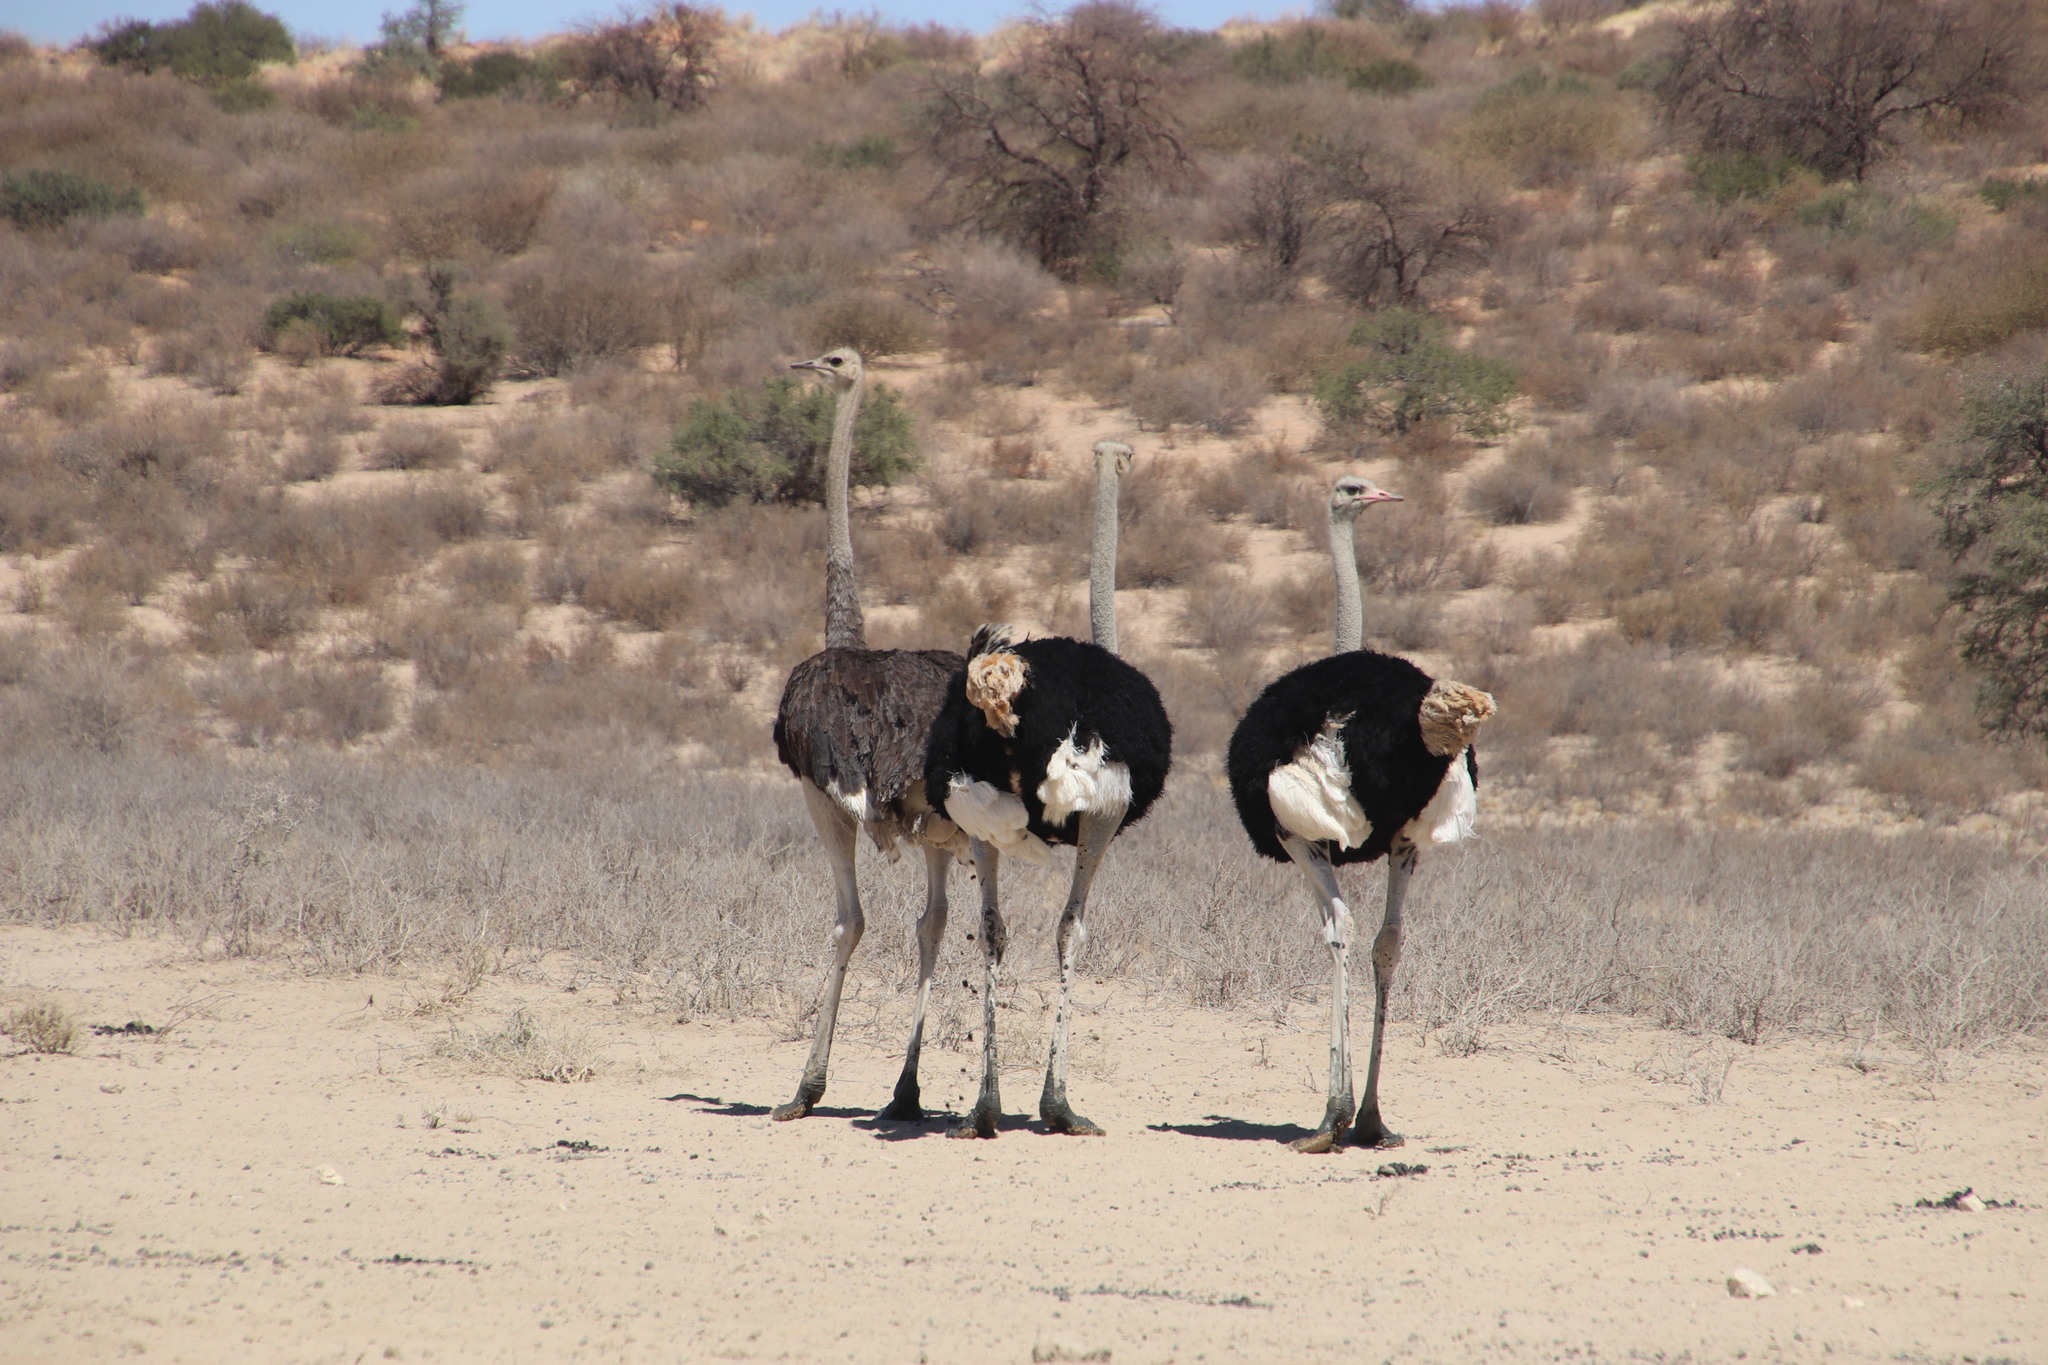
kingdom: Animalia
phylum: Chordata
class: Aves
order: Struthioniformes
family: Struthionidae
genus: Struthio
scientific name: Struthio camelus
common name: Common ostrich
